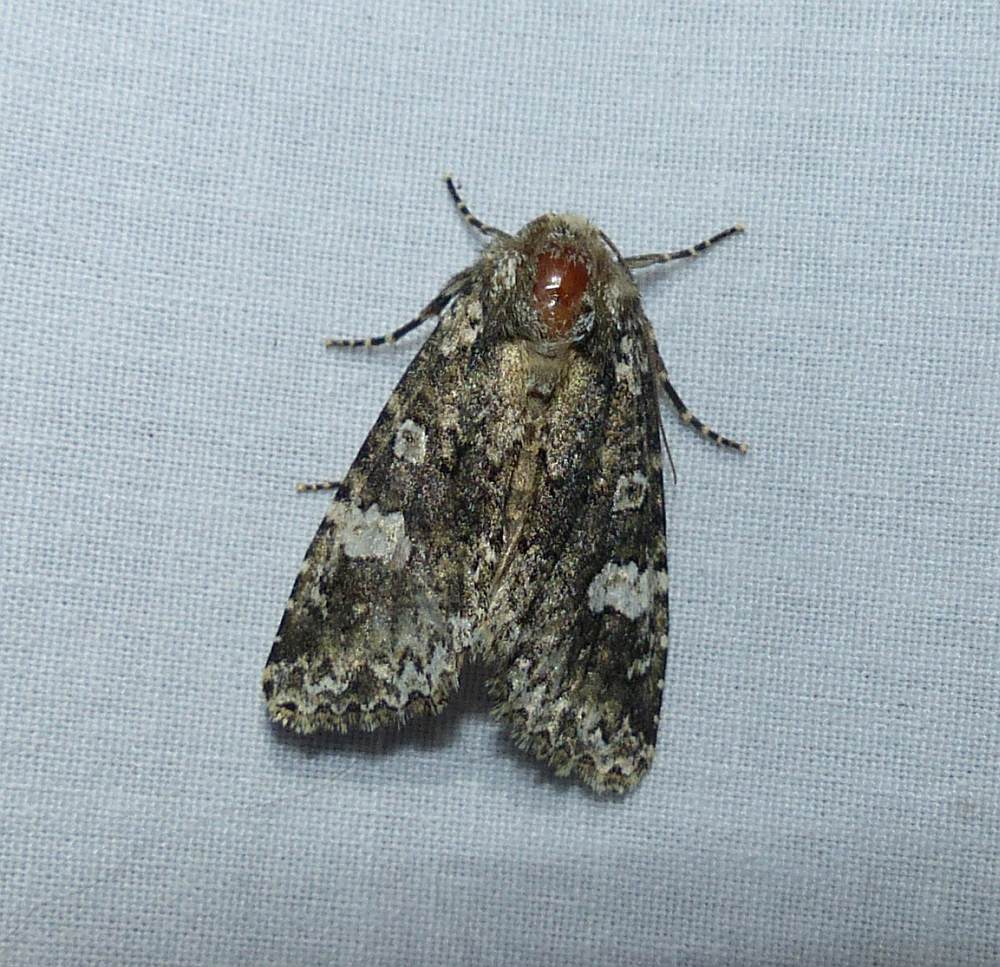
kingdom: Animalia
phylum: Arthropoda
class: Insecta
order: Lepidoptera
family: Noctuidae
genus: Melanchra
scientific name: Melanchra adjuncta
